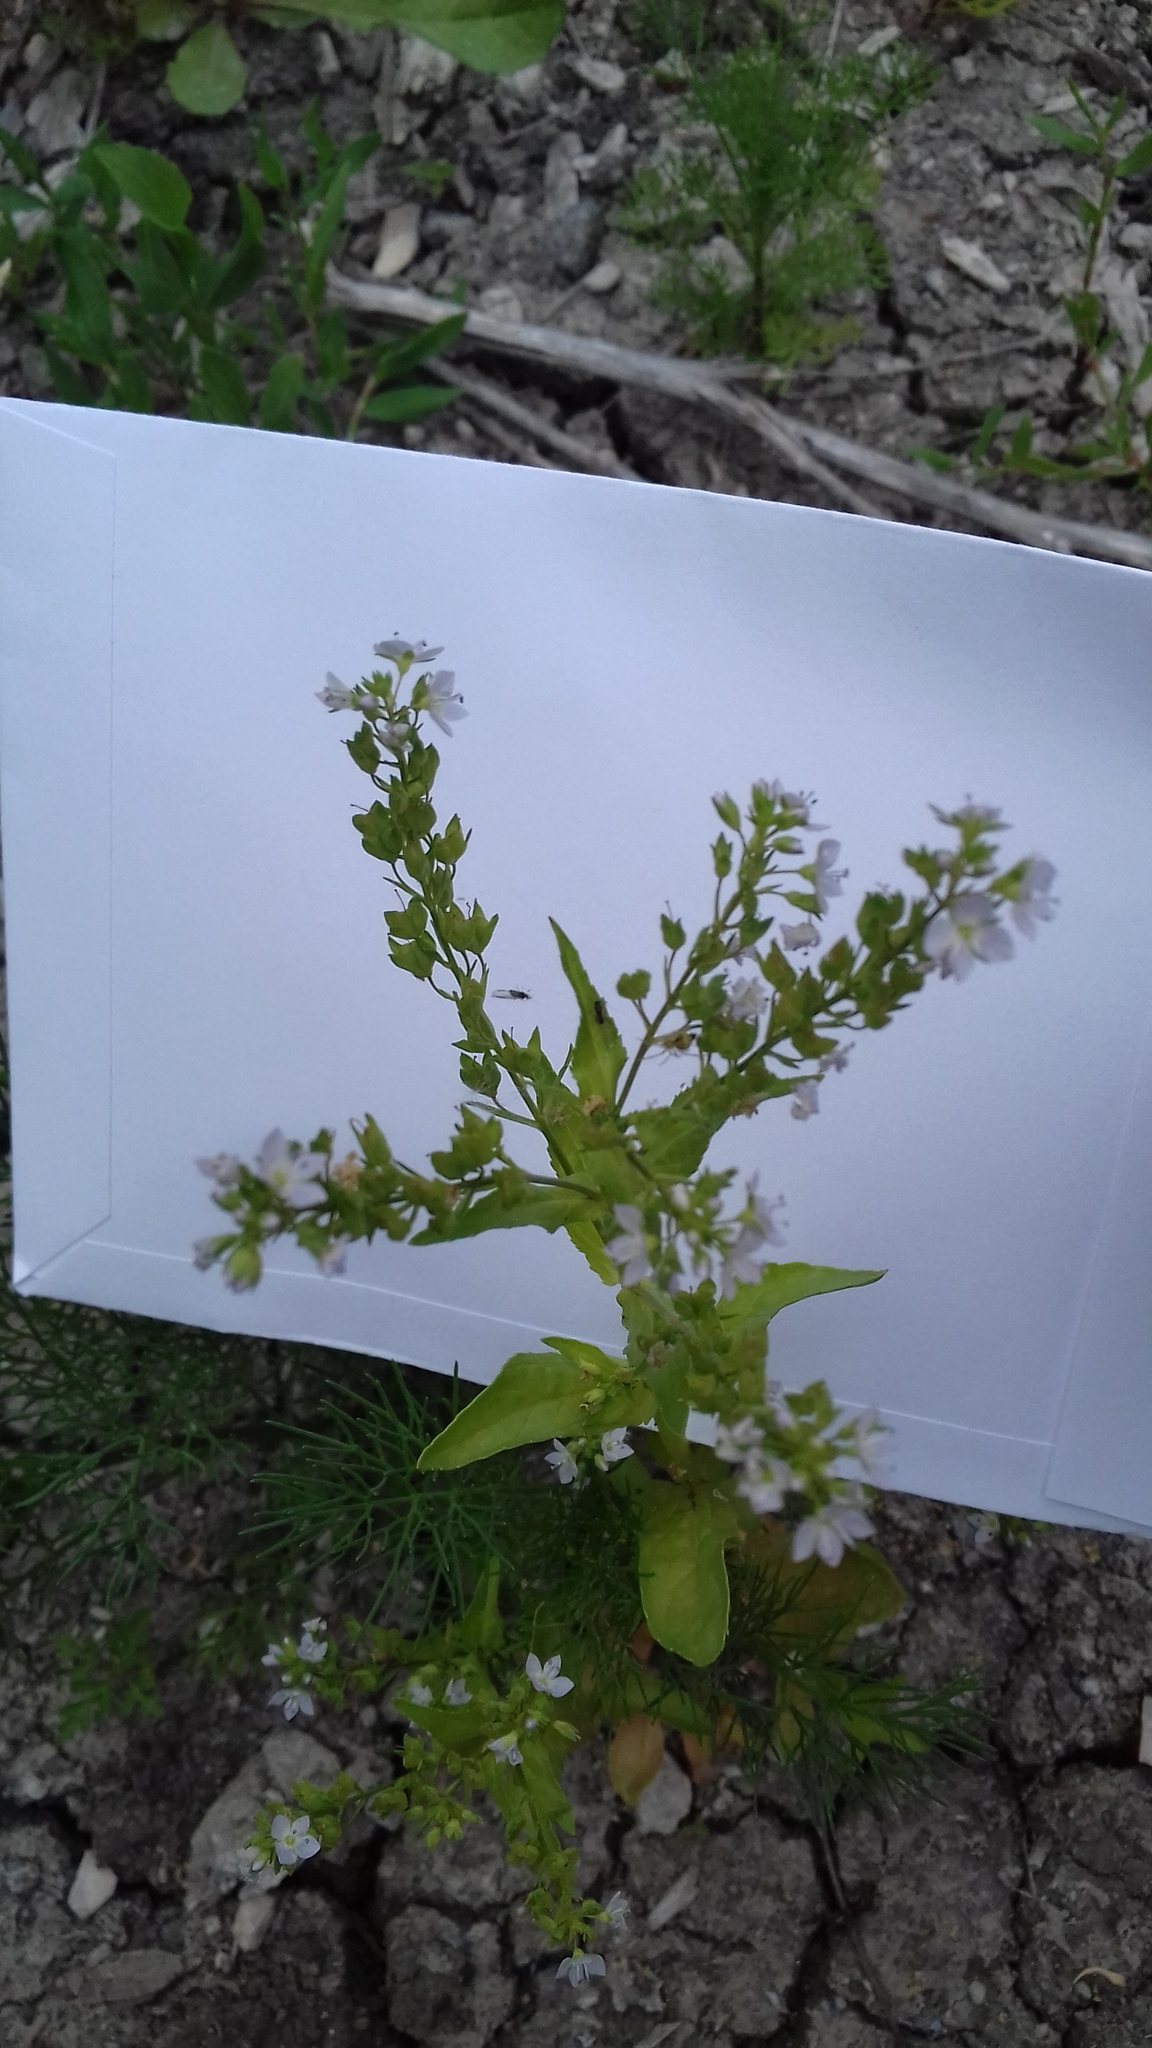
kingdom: Plantae
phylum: Tracheophyta
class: Magnoliopsida
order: Lamiales
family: Plantaginaceae
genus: Veronica
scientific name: Veronica anagallis-aquatica
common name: Water speedwell
